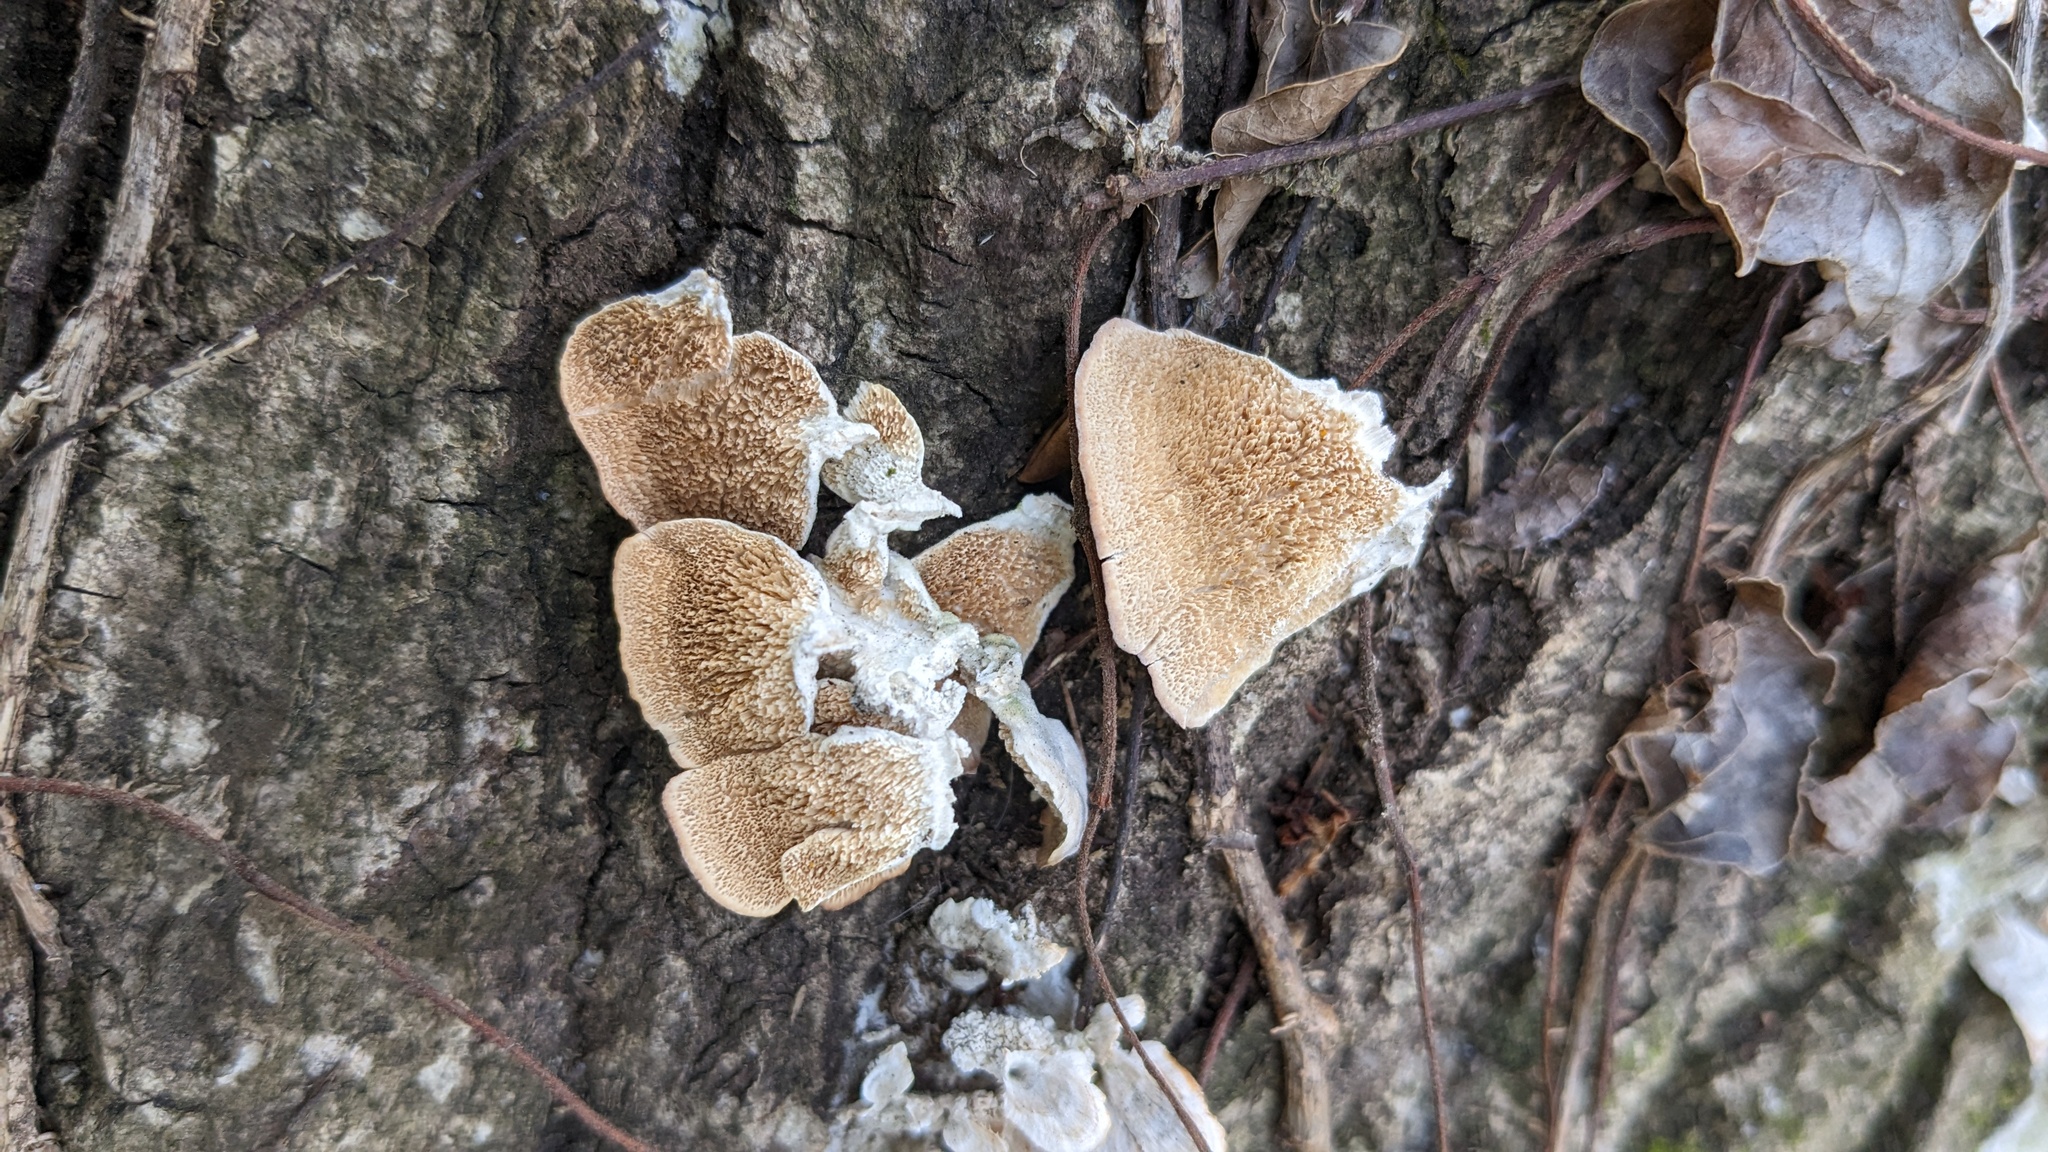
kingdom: Fungi
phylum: Basidiomycota
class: Agaricomycetes
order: Hymenochaetales
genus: Trichaptum
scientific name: Trichaptum biforme
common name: Violet-toothed polypore
